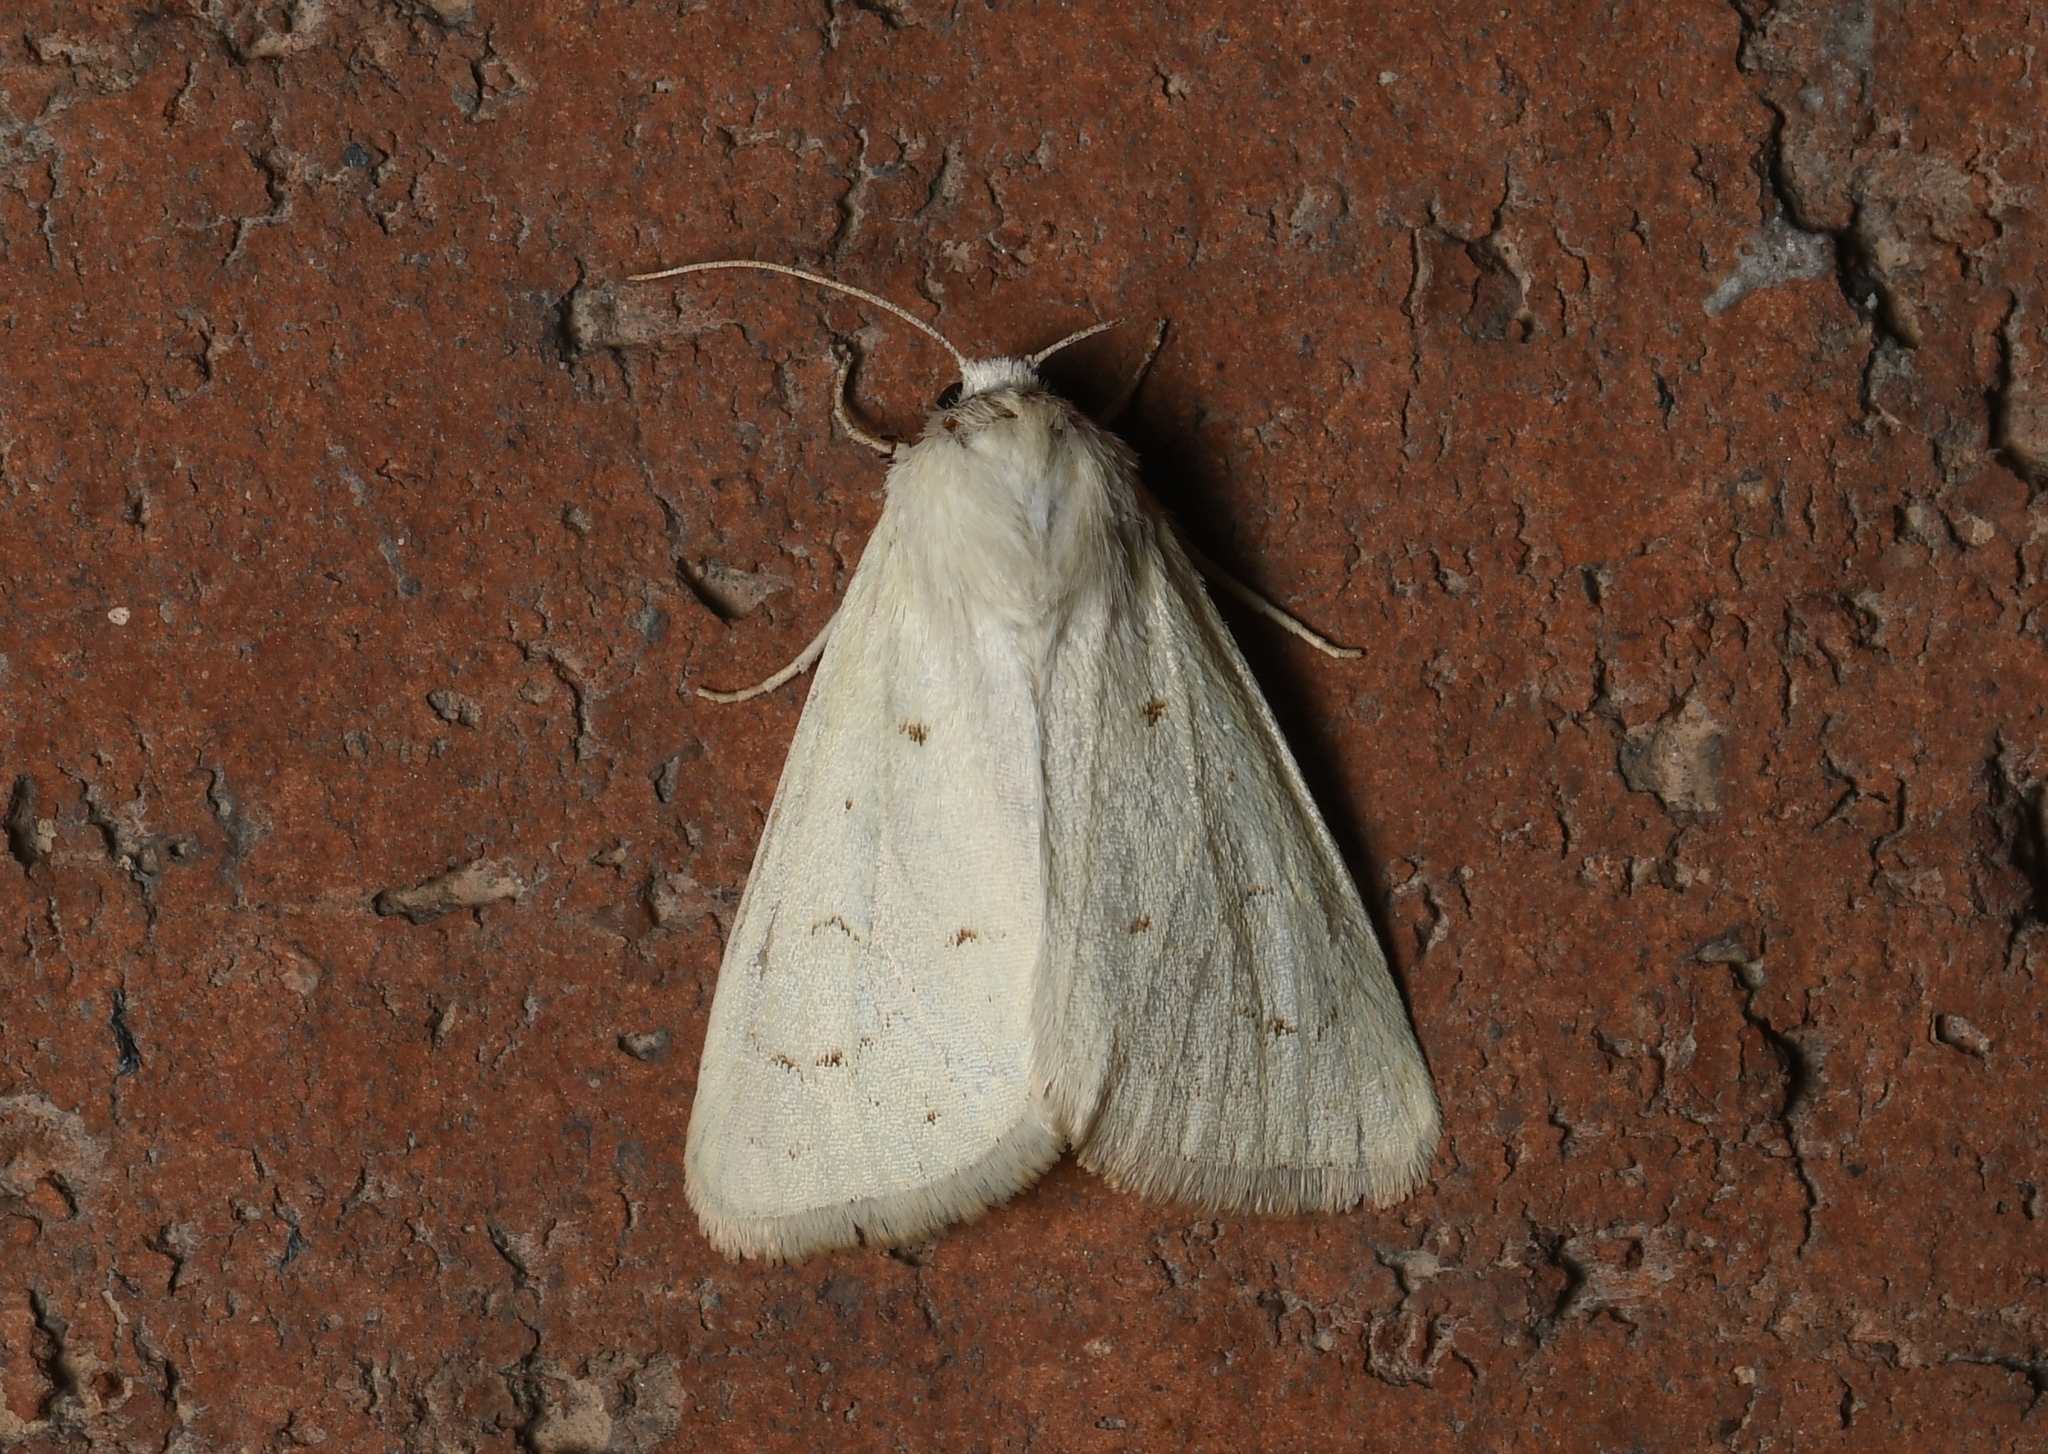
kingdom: Animalia
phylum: Arthropoda
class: Insecta
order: Lepidoptera
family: Noctuidae
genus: Schinia
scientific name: Schinia luxa
